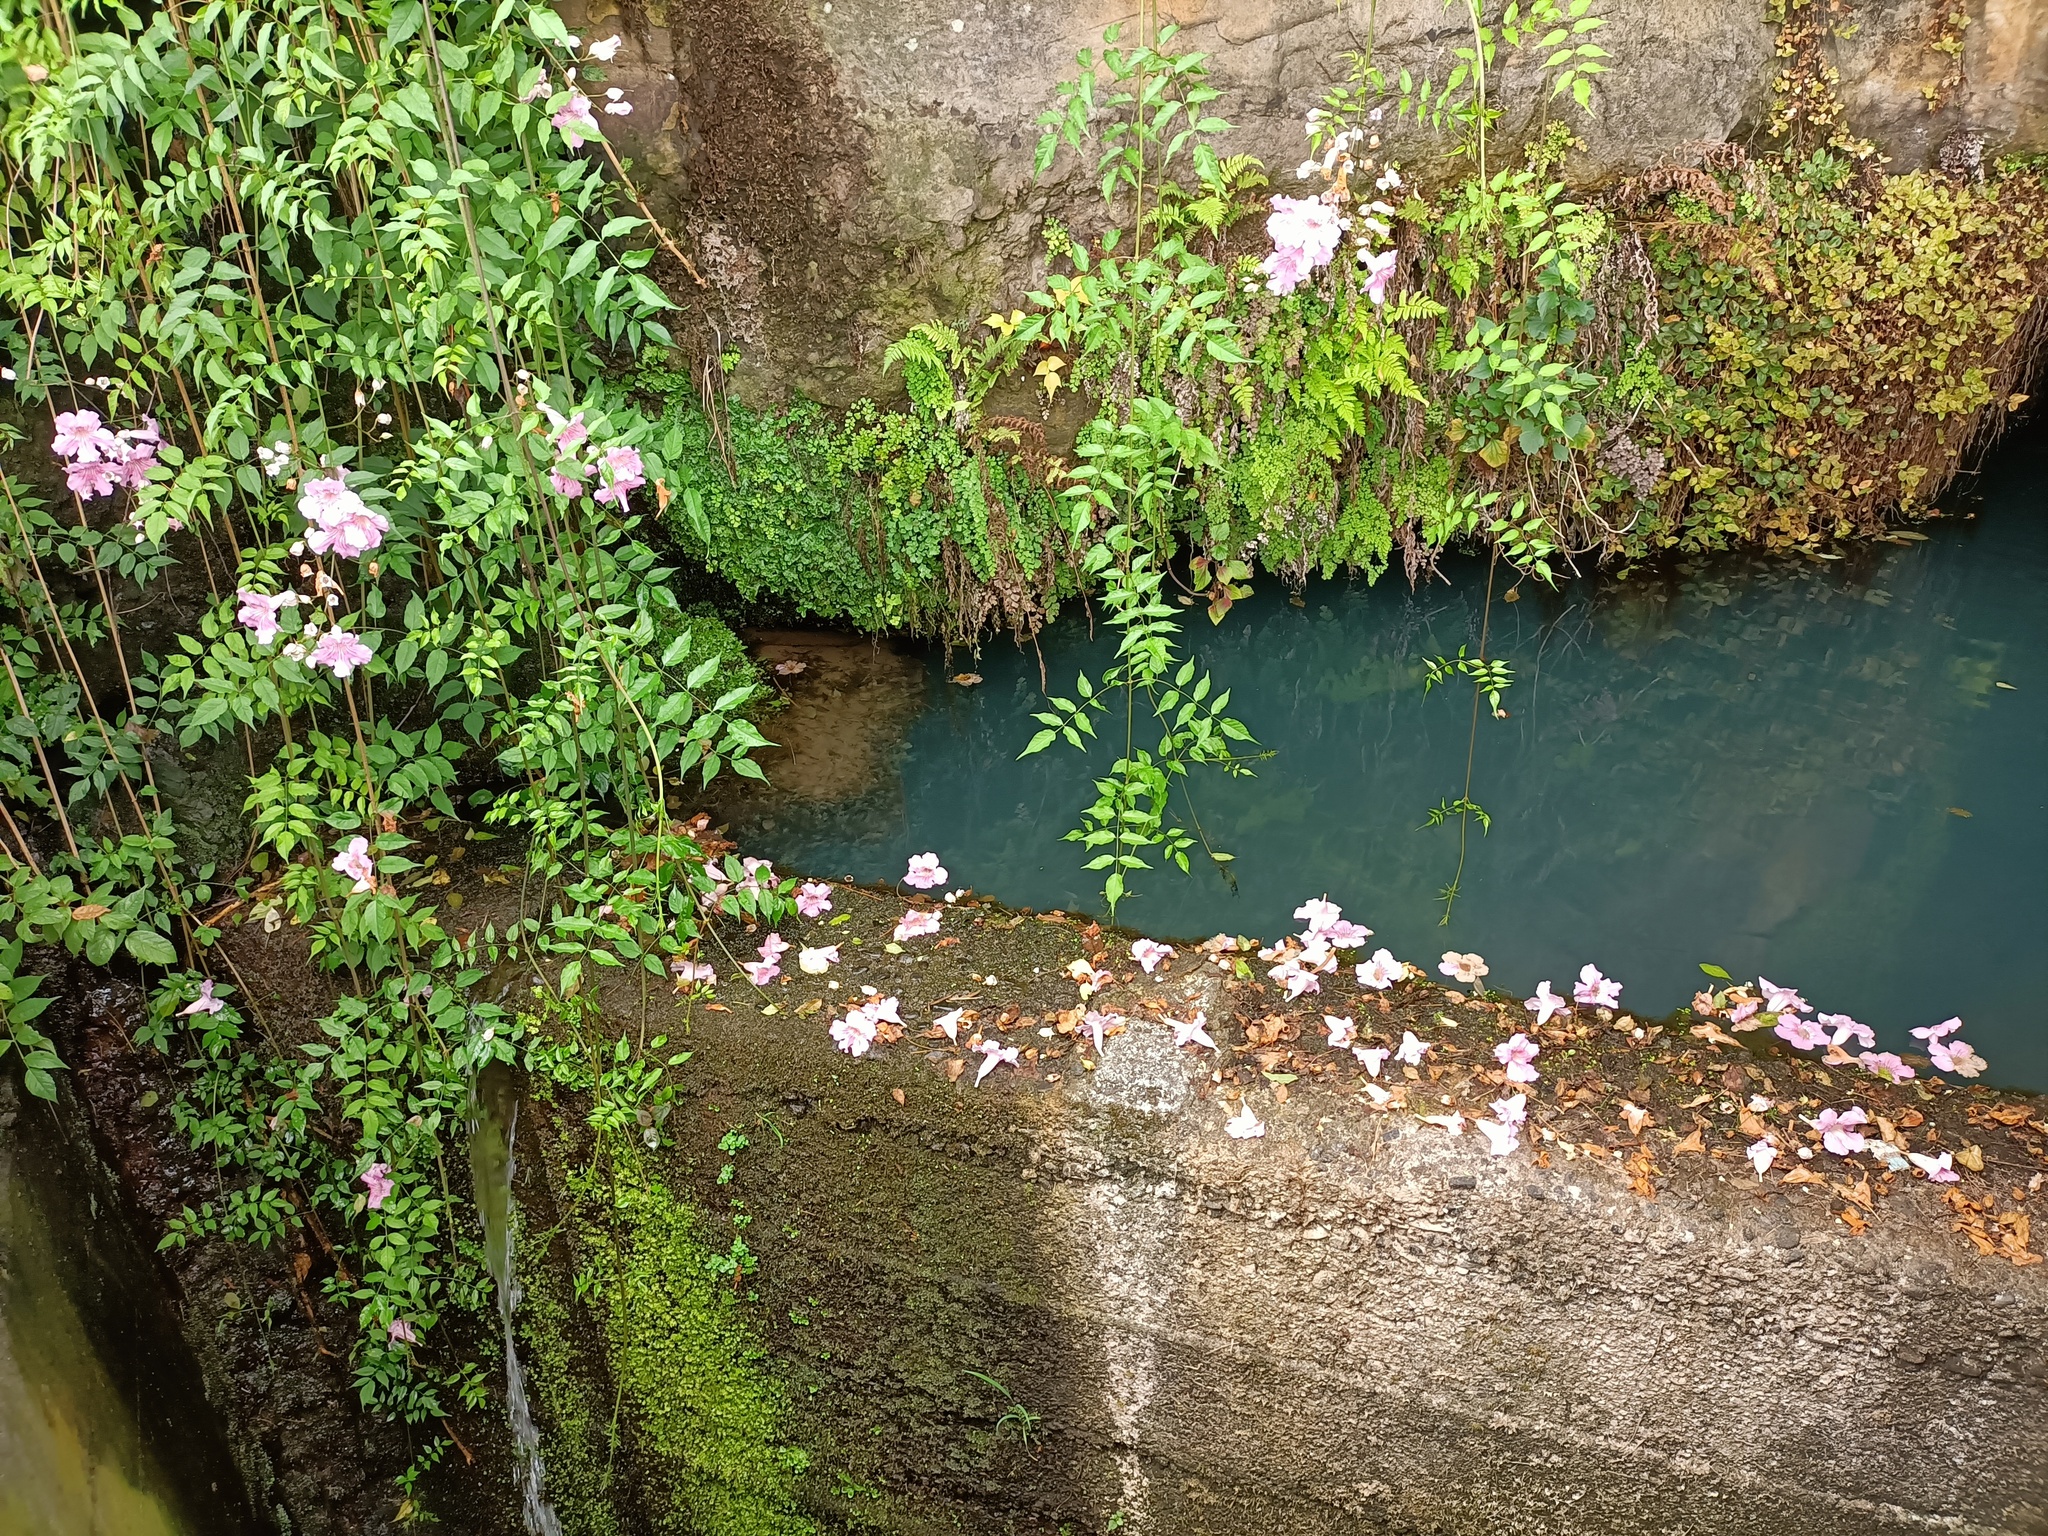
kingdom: Plantae
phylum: Tracheophyta
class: Magnoliopsida
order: Lamiales
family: Bignoniaceae
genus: Podranea
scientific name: Podranea ricasoliana
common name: Zimbabwe creeper
